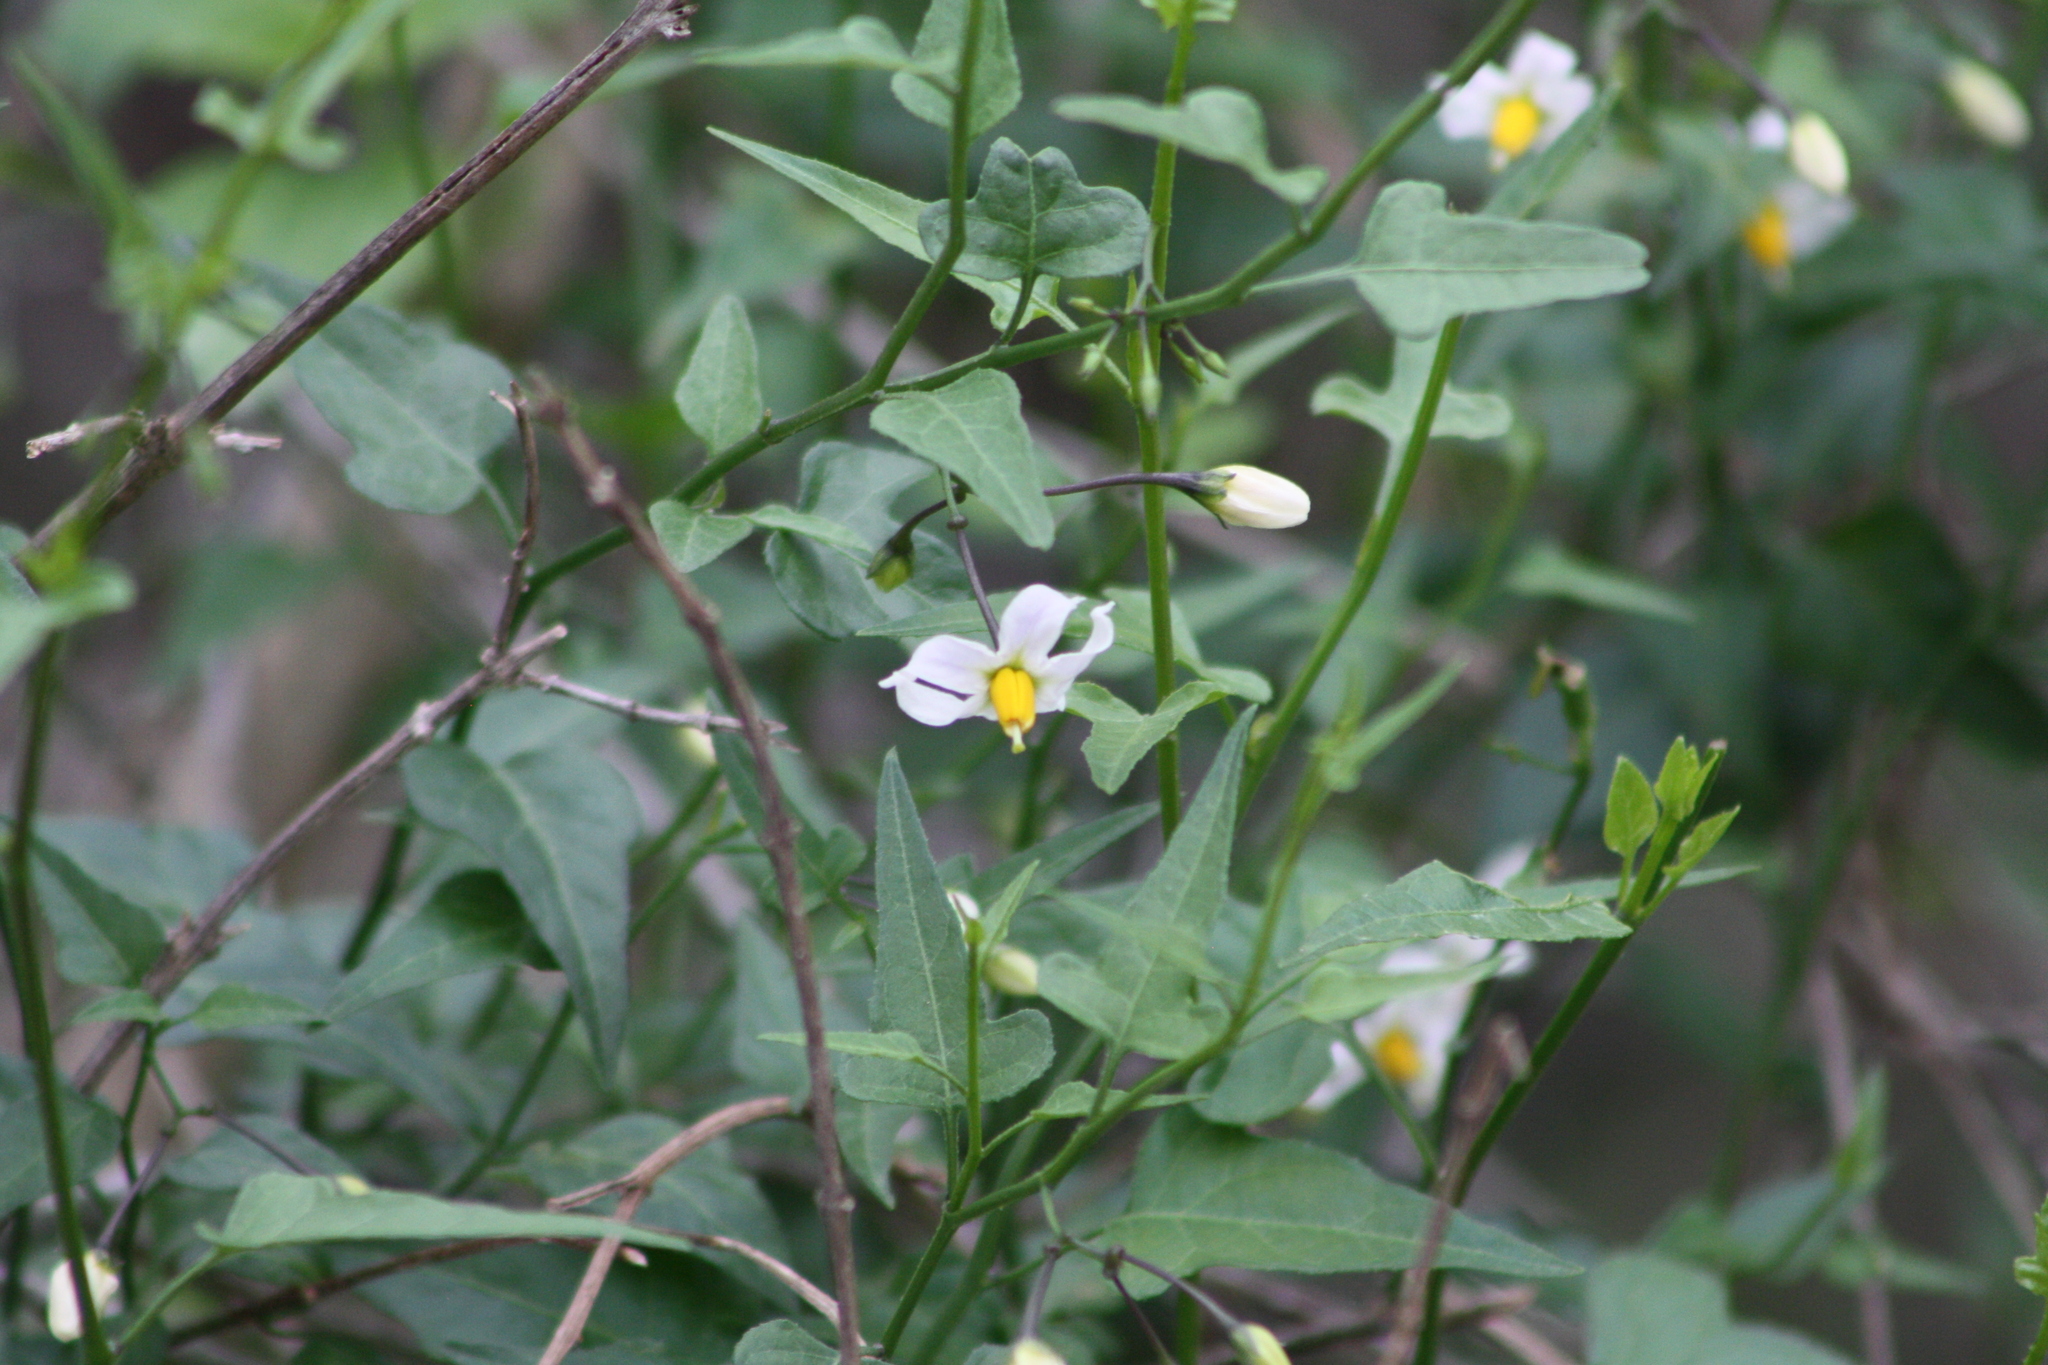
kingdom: Plantae
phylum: Tracheophyta
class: Magnoliopsida
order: Solanales
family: Solanaceae
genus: Solanum
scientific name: Solanum triquetrum
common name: Texas nightshade
